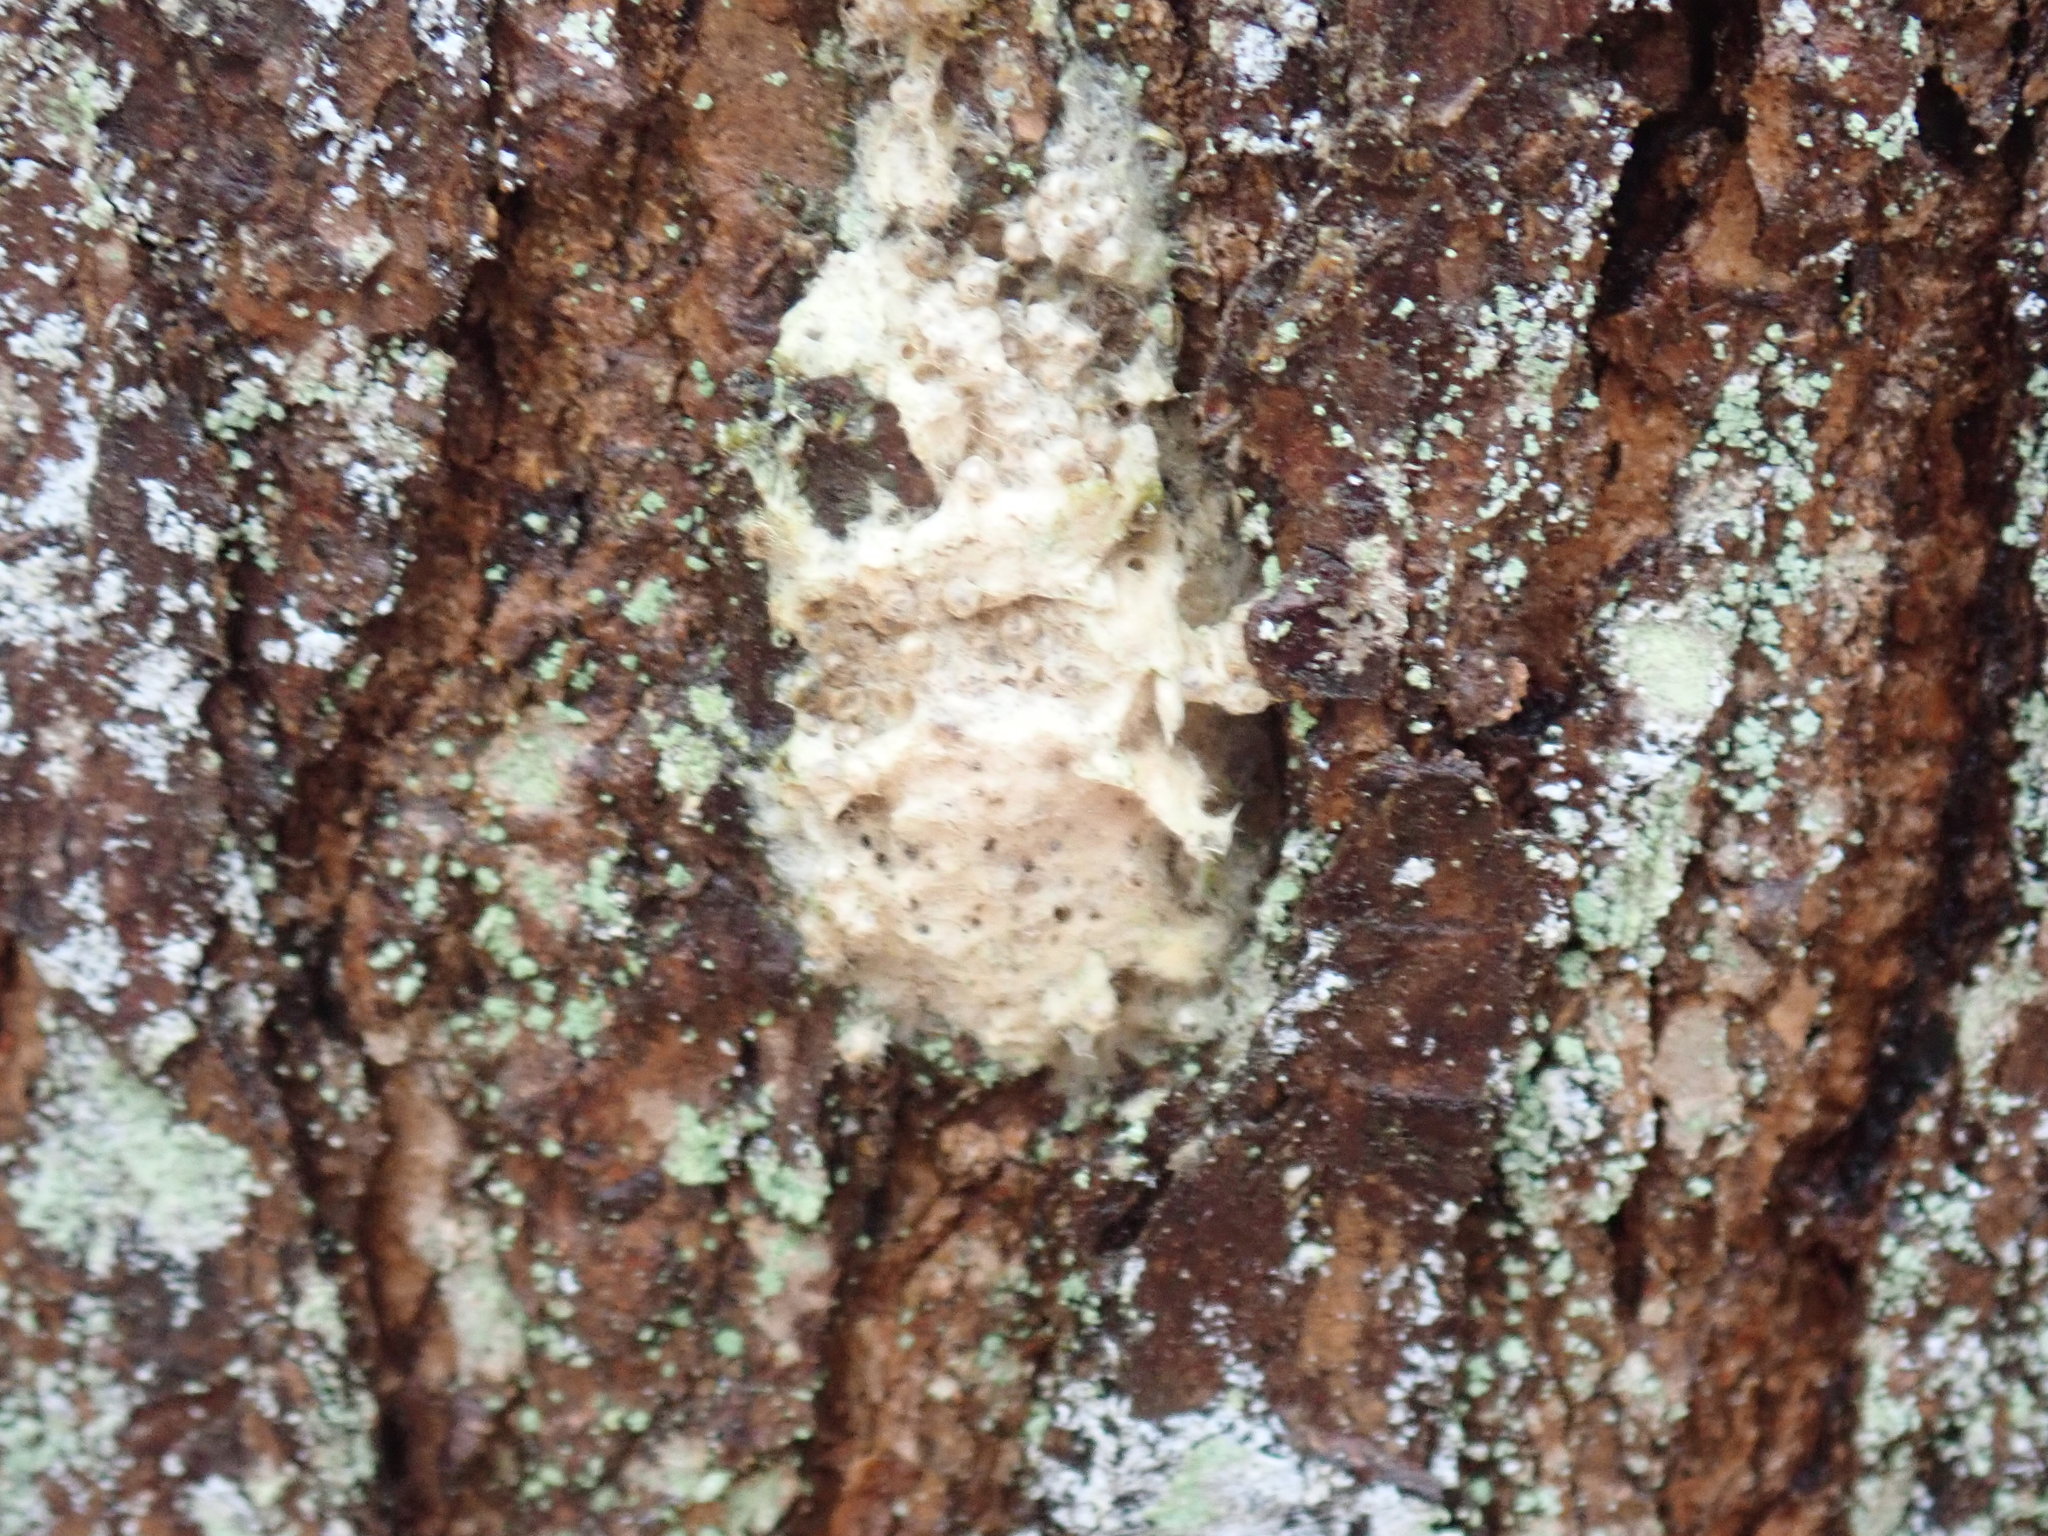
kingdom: Animalia
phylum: Arthropoda
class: Insecta
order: Lepidoptera
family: Erebidae
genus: Lymantria
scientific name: Lymantria dispar
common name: Gypsy moth
